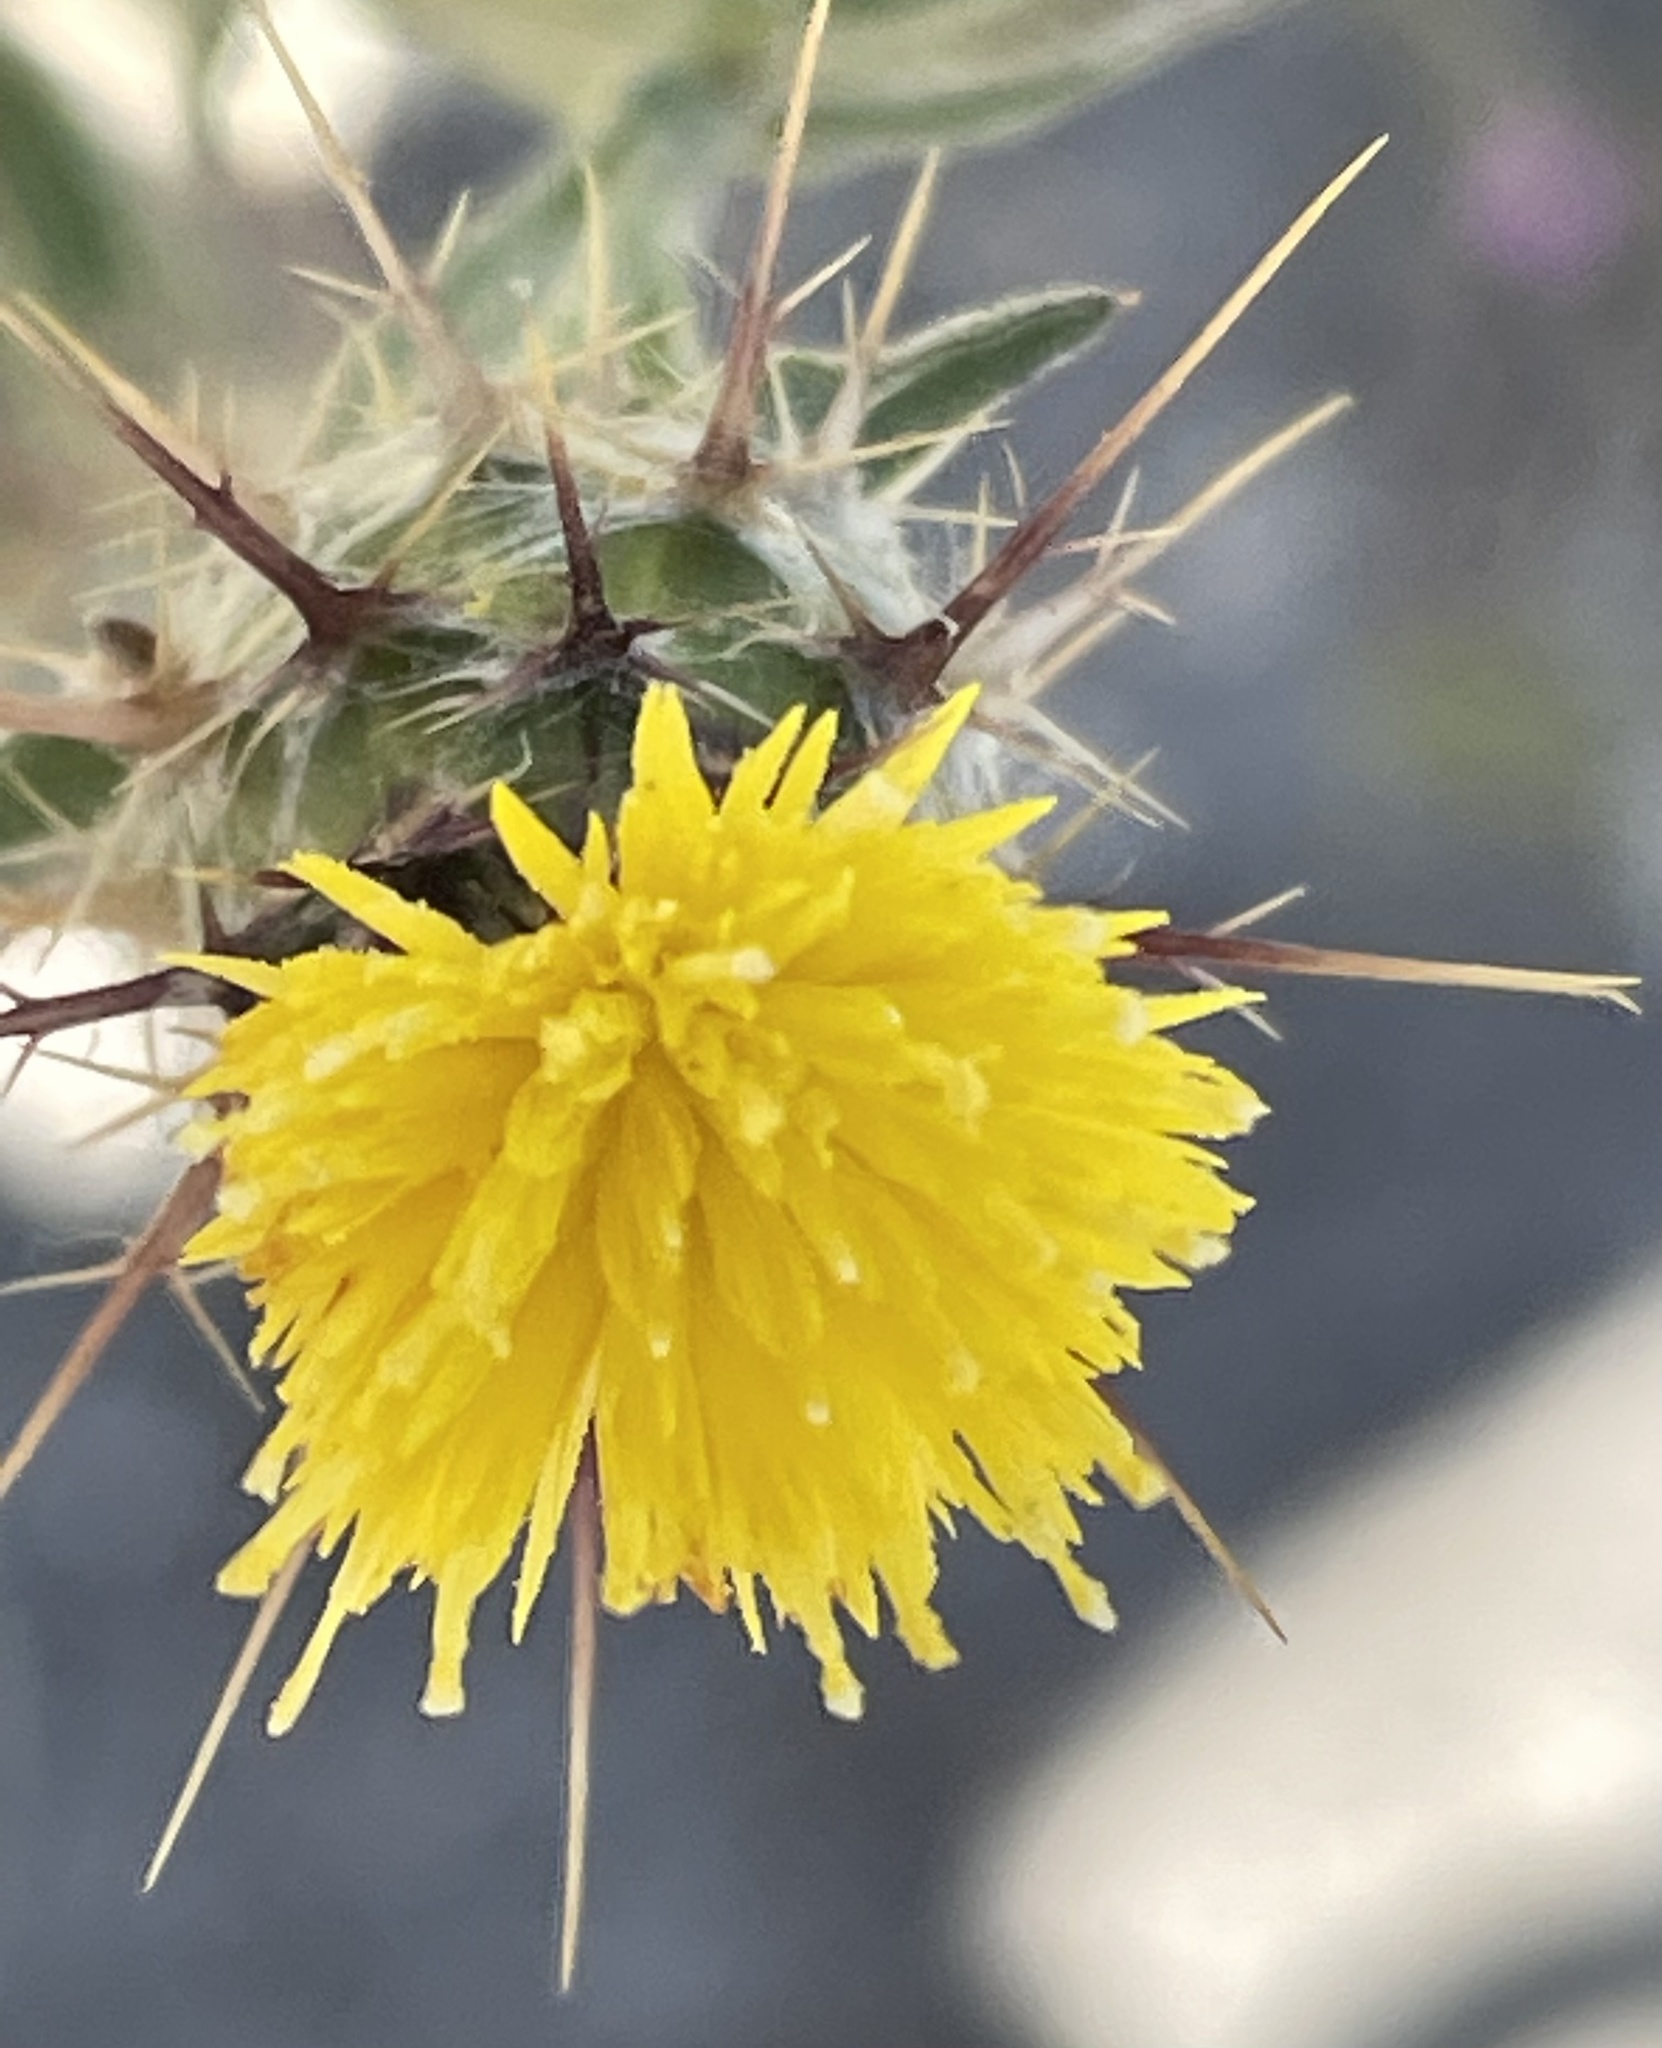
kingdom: Plantae
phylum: Tracheophyta
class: Magnoliopsida
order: Asterales
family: Asteraceae
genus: Centaurea
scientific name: Centaurea melitensis
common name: Maltese star-thistle
